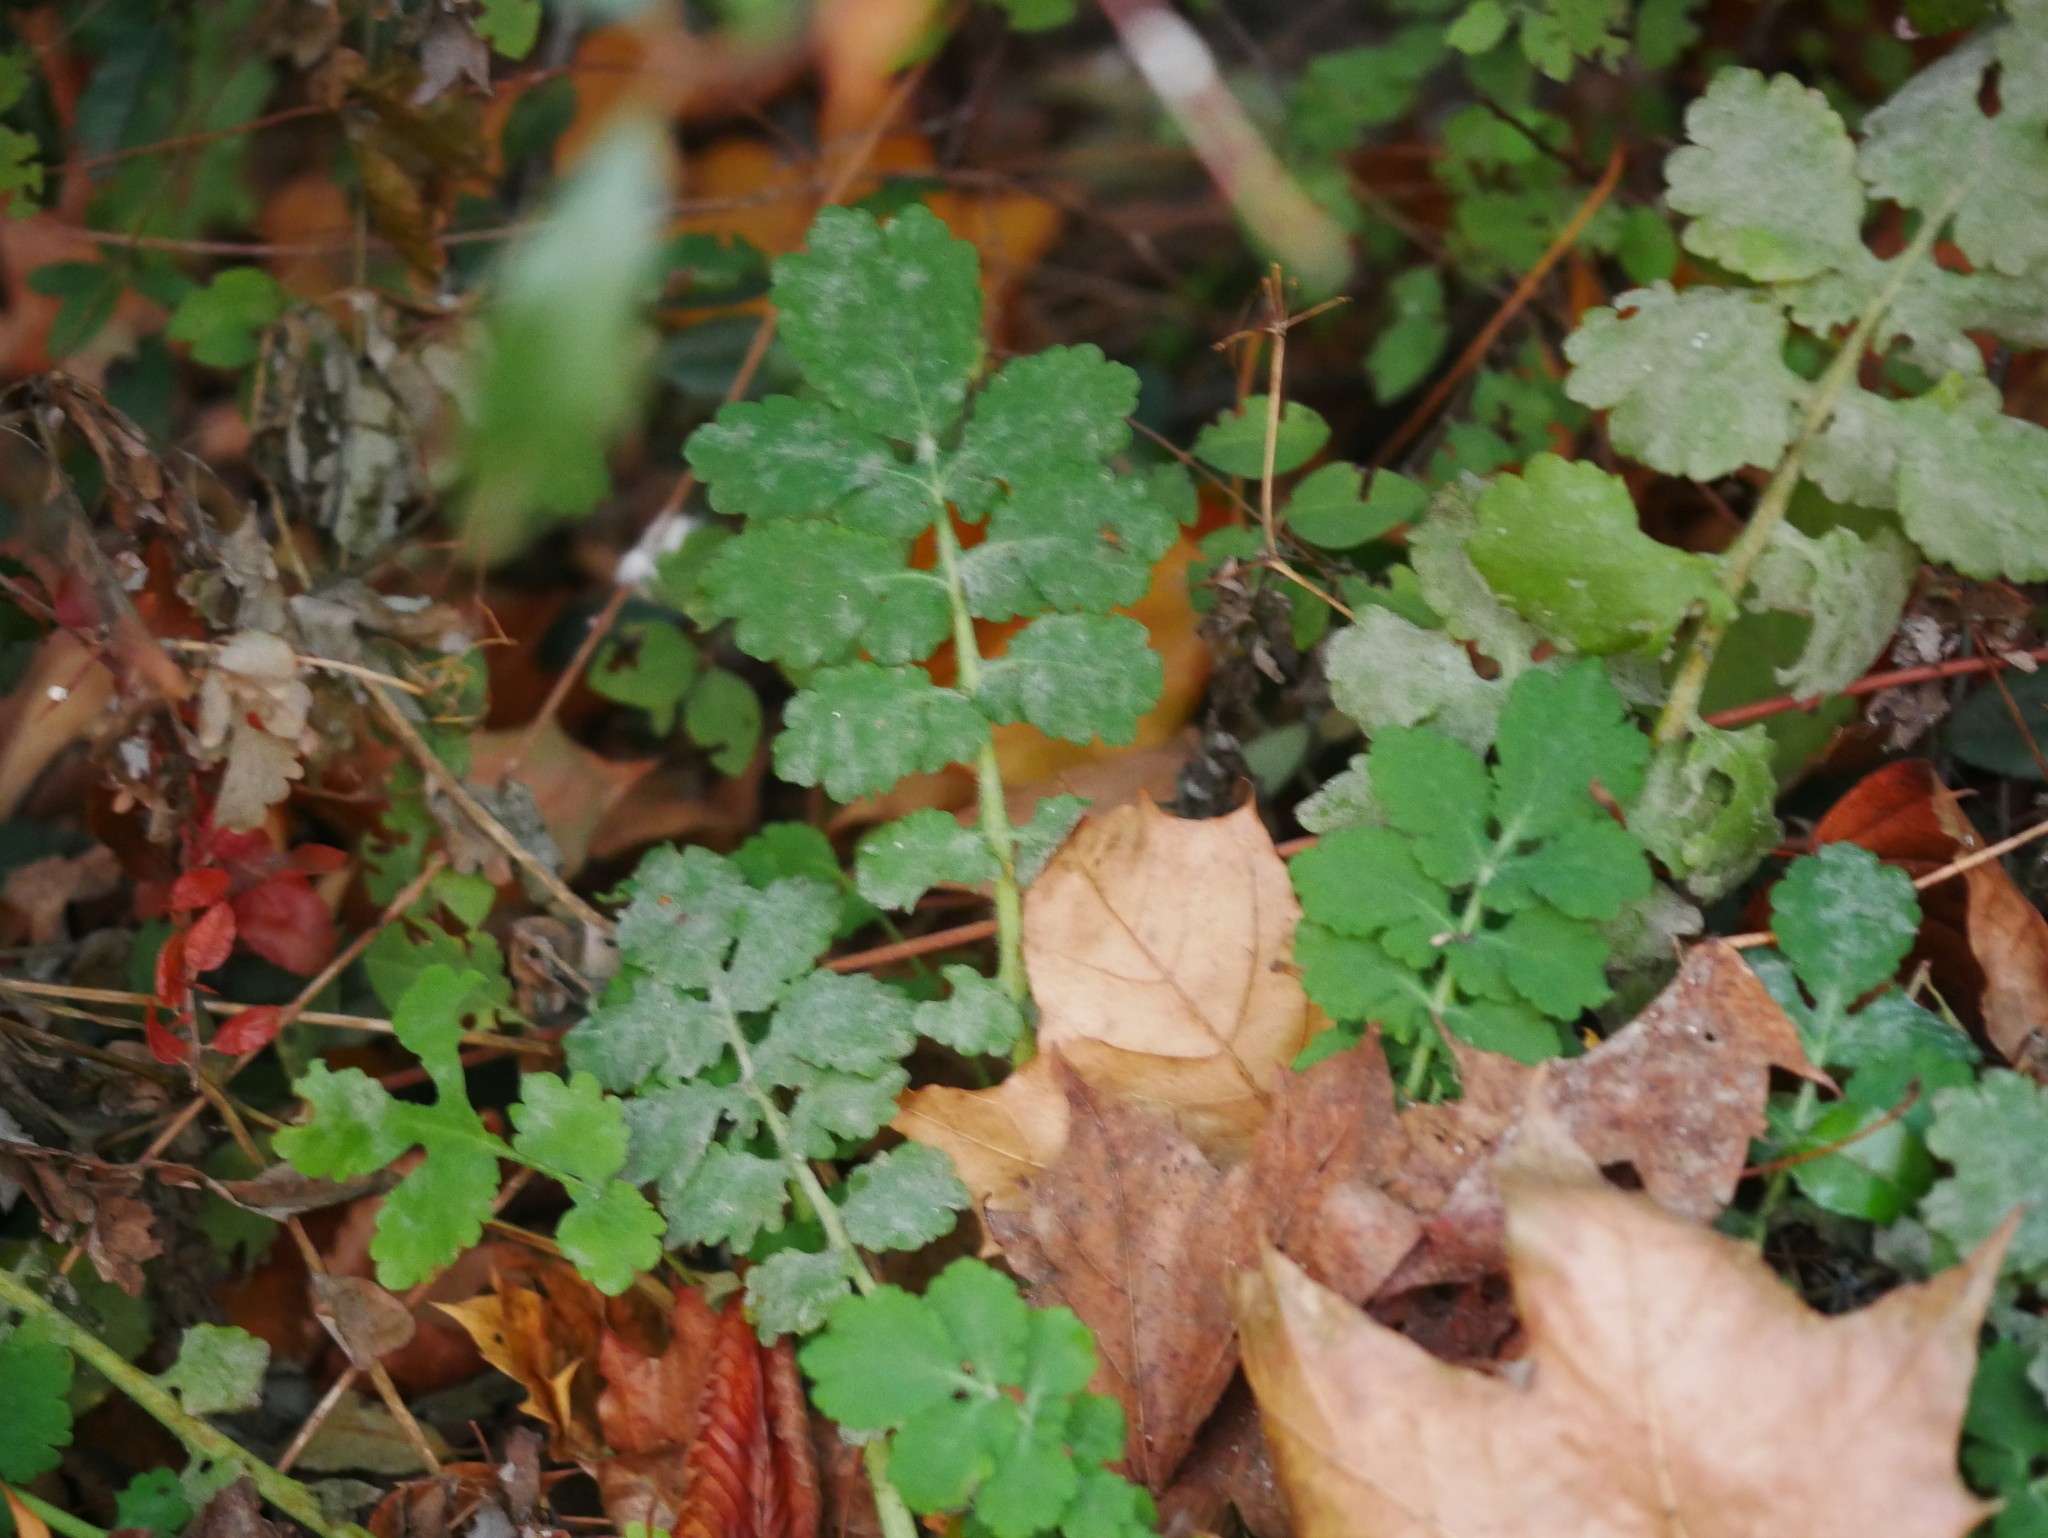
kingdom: Plantae
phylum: Tracheophyta
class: Magnoliopsida
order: Ranunculales
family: Papaveraceae
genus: Chelidonium
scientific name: Chelidonium majus
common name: Greater celandine
